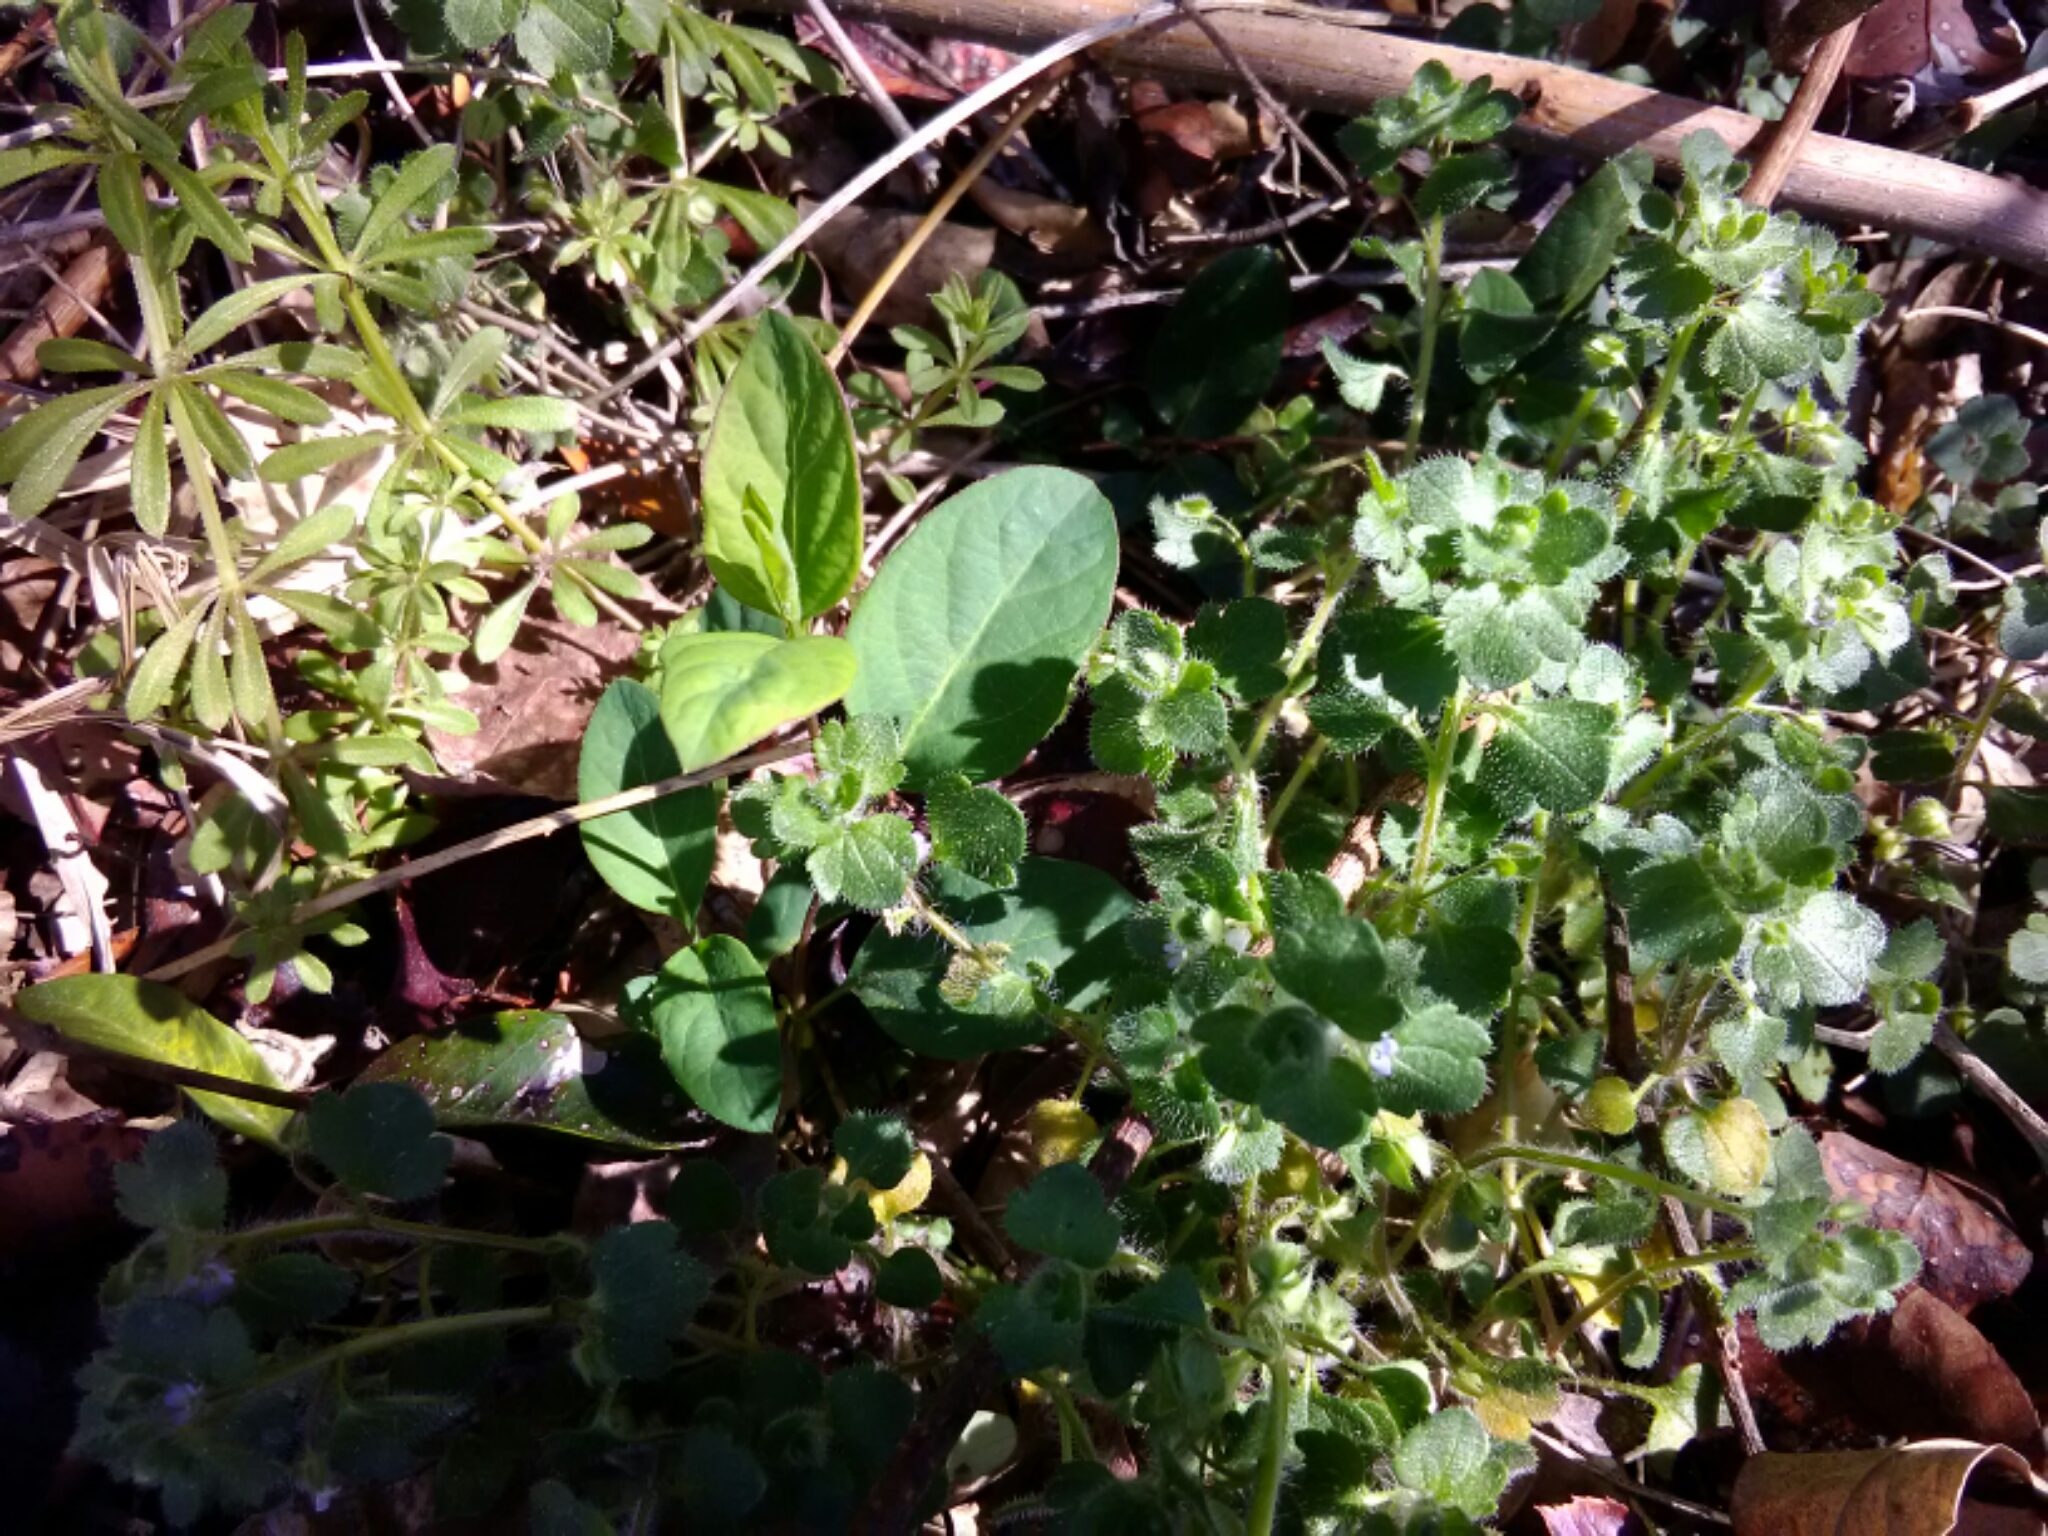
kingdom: Plantae
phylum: Tracheophyta
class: Magnoliopsida
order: Lamiales
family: Plantaginaceae
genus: Veronica
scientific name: Veronica hederifolia
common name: Ivy-leaved speedwell
